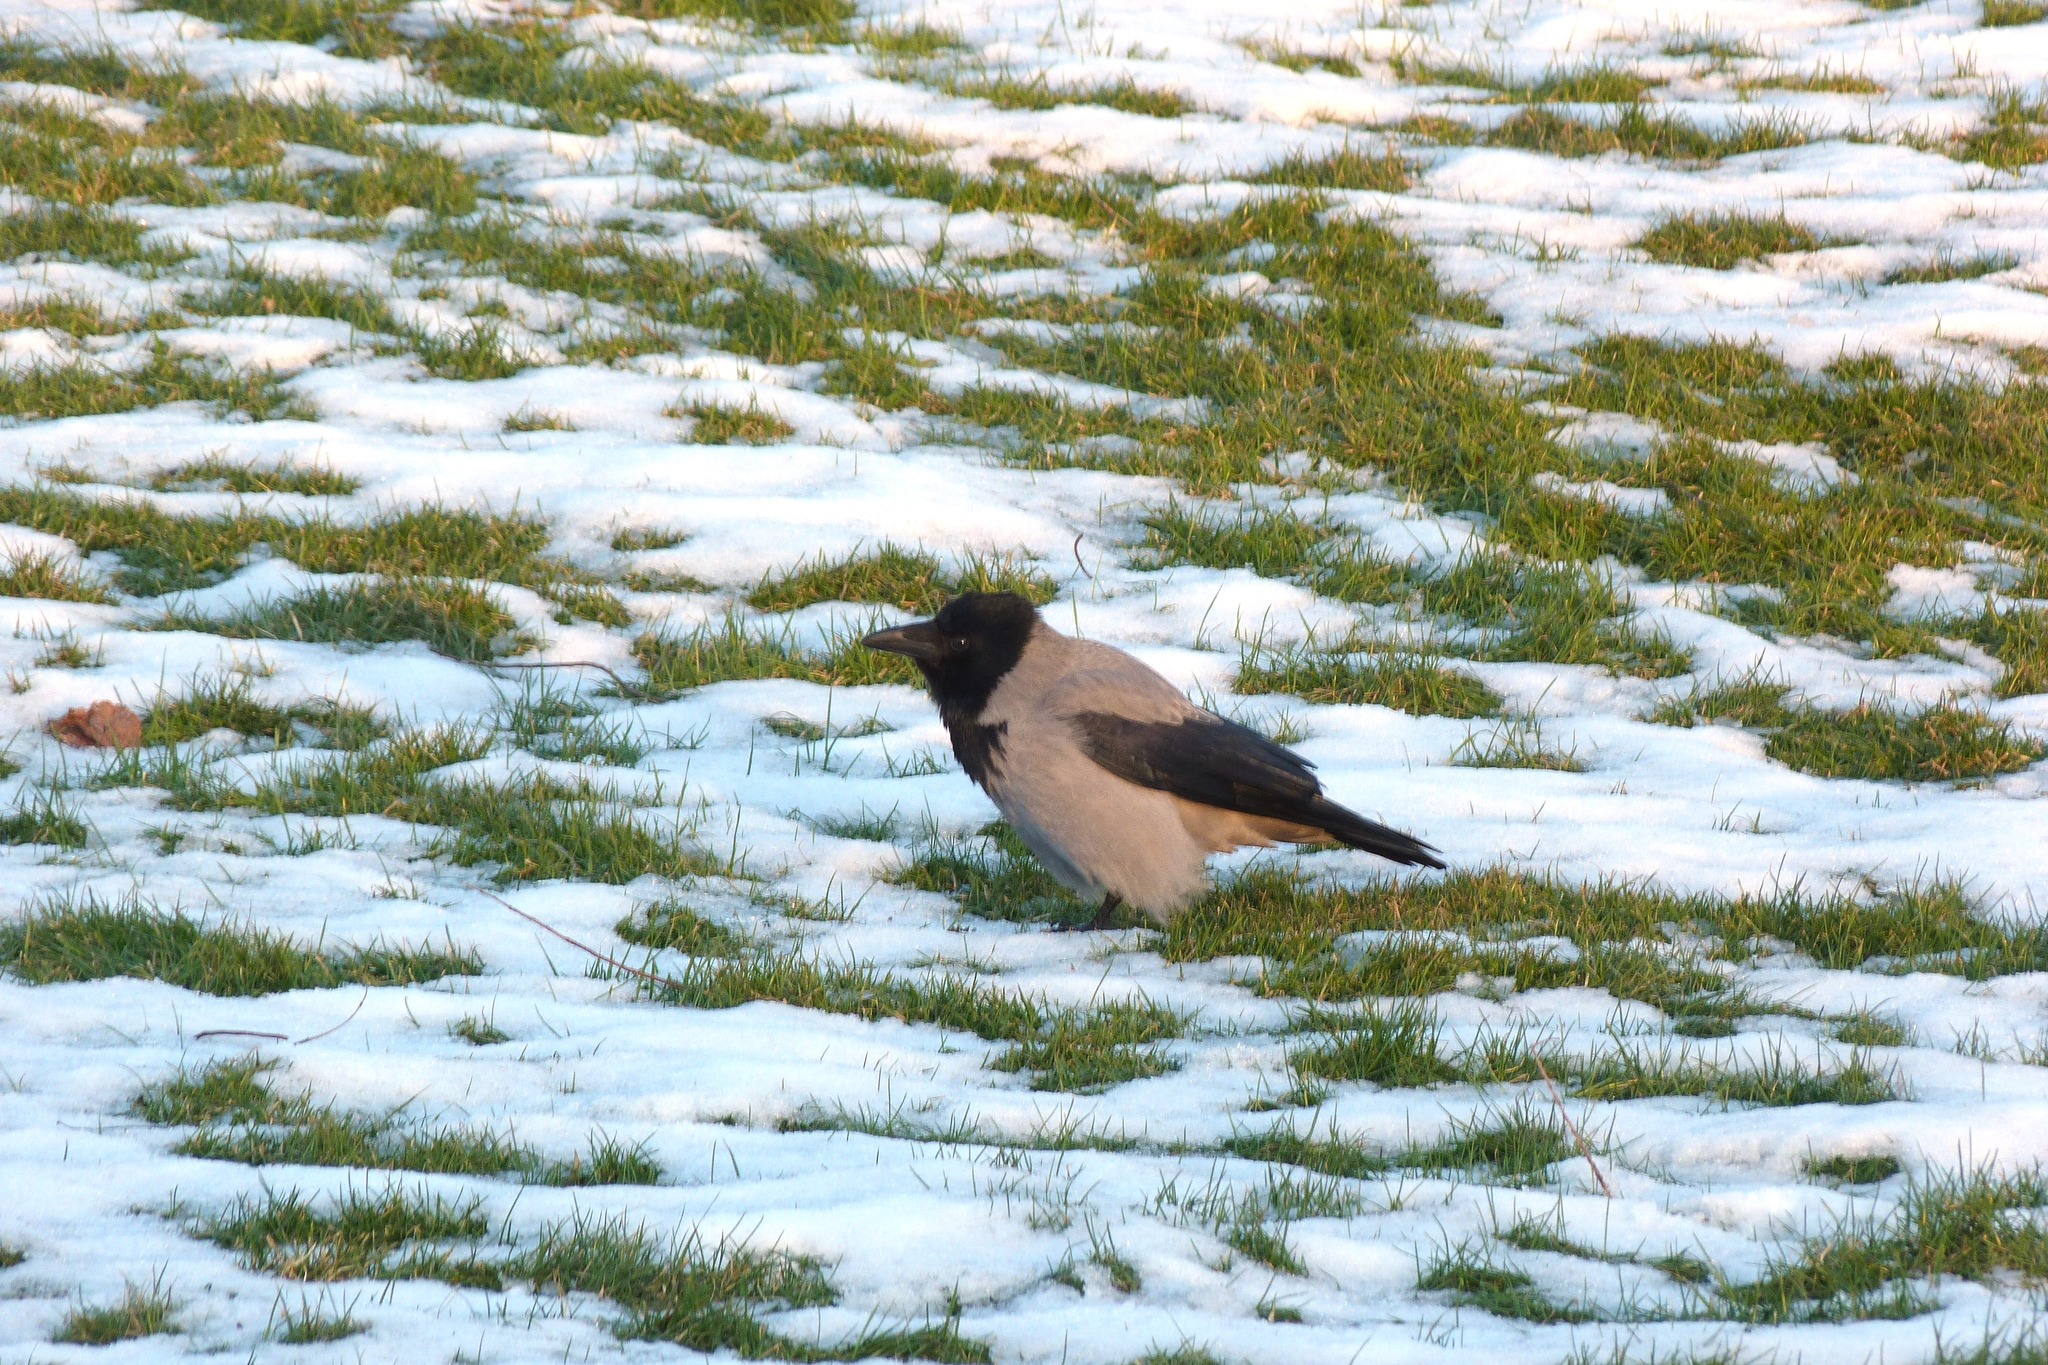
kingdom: Animalia
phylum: Chordata
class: Aves
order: Passeriformes
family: Corvidae
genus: Corvus
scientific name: Corvus cornix
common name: Hooded crow
